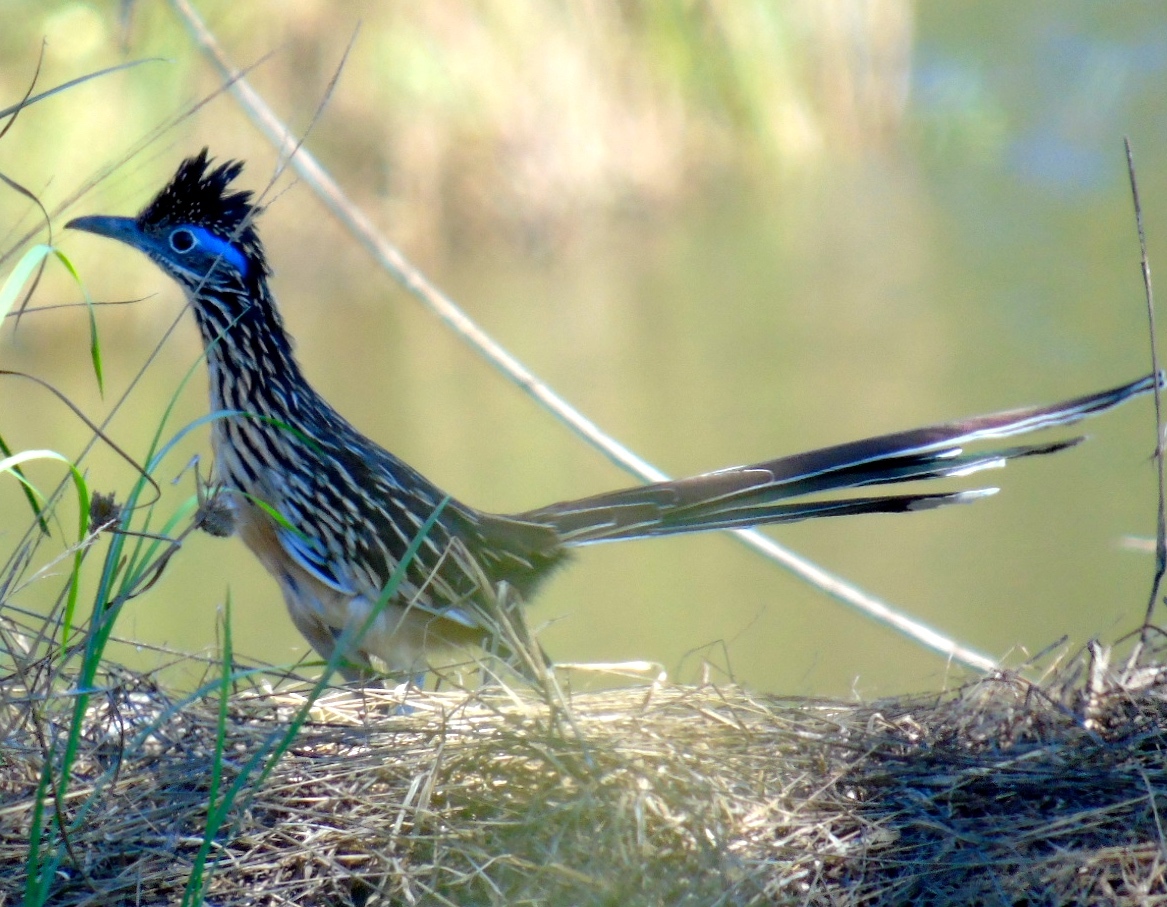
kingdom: Animalia
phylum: Chordata
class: Aves
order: Cuculiformes
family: Cuculidae
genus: Geococcyx
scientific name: Geococcyx velox
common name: Lesser roadrunner
